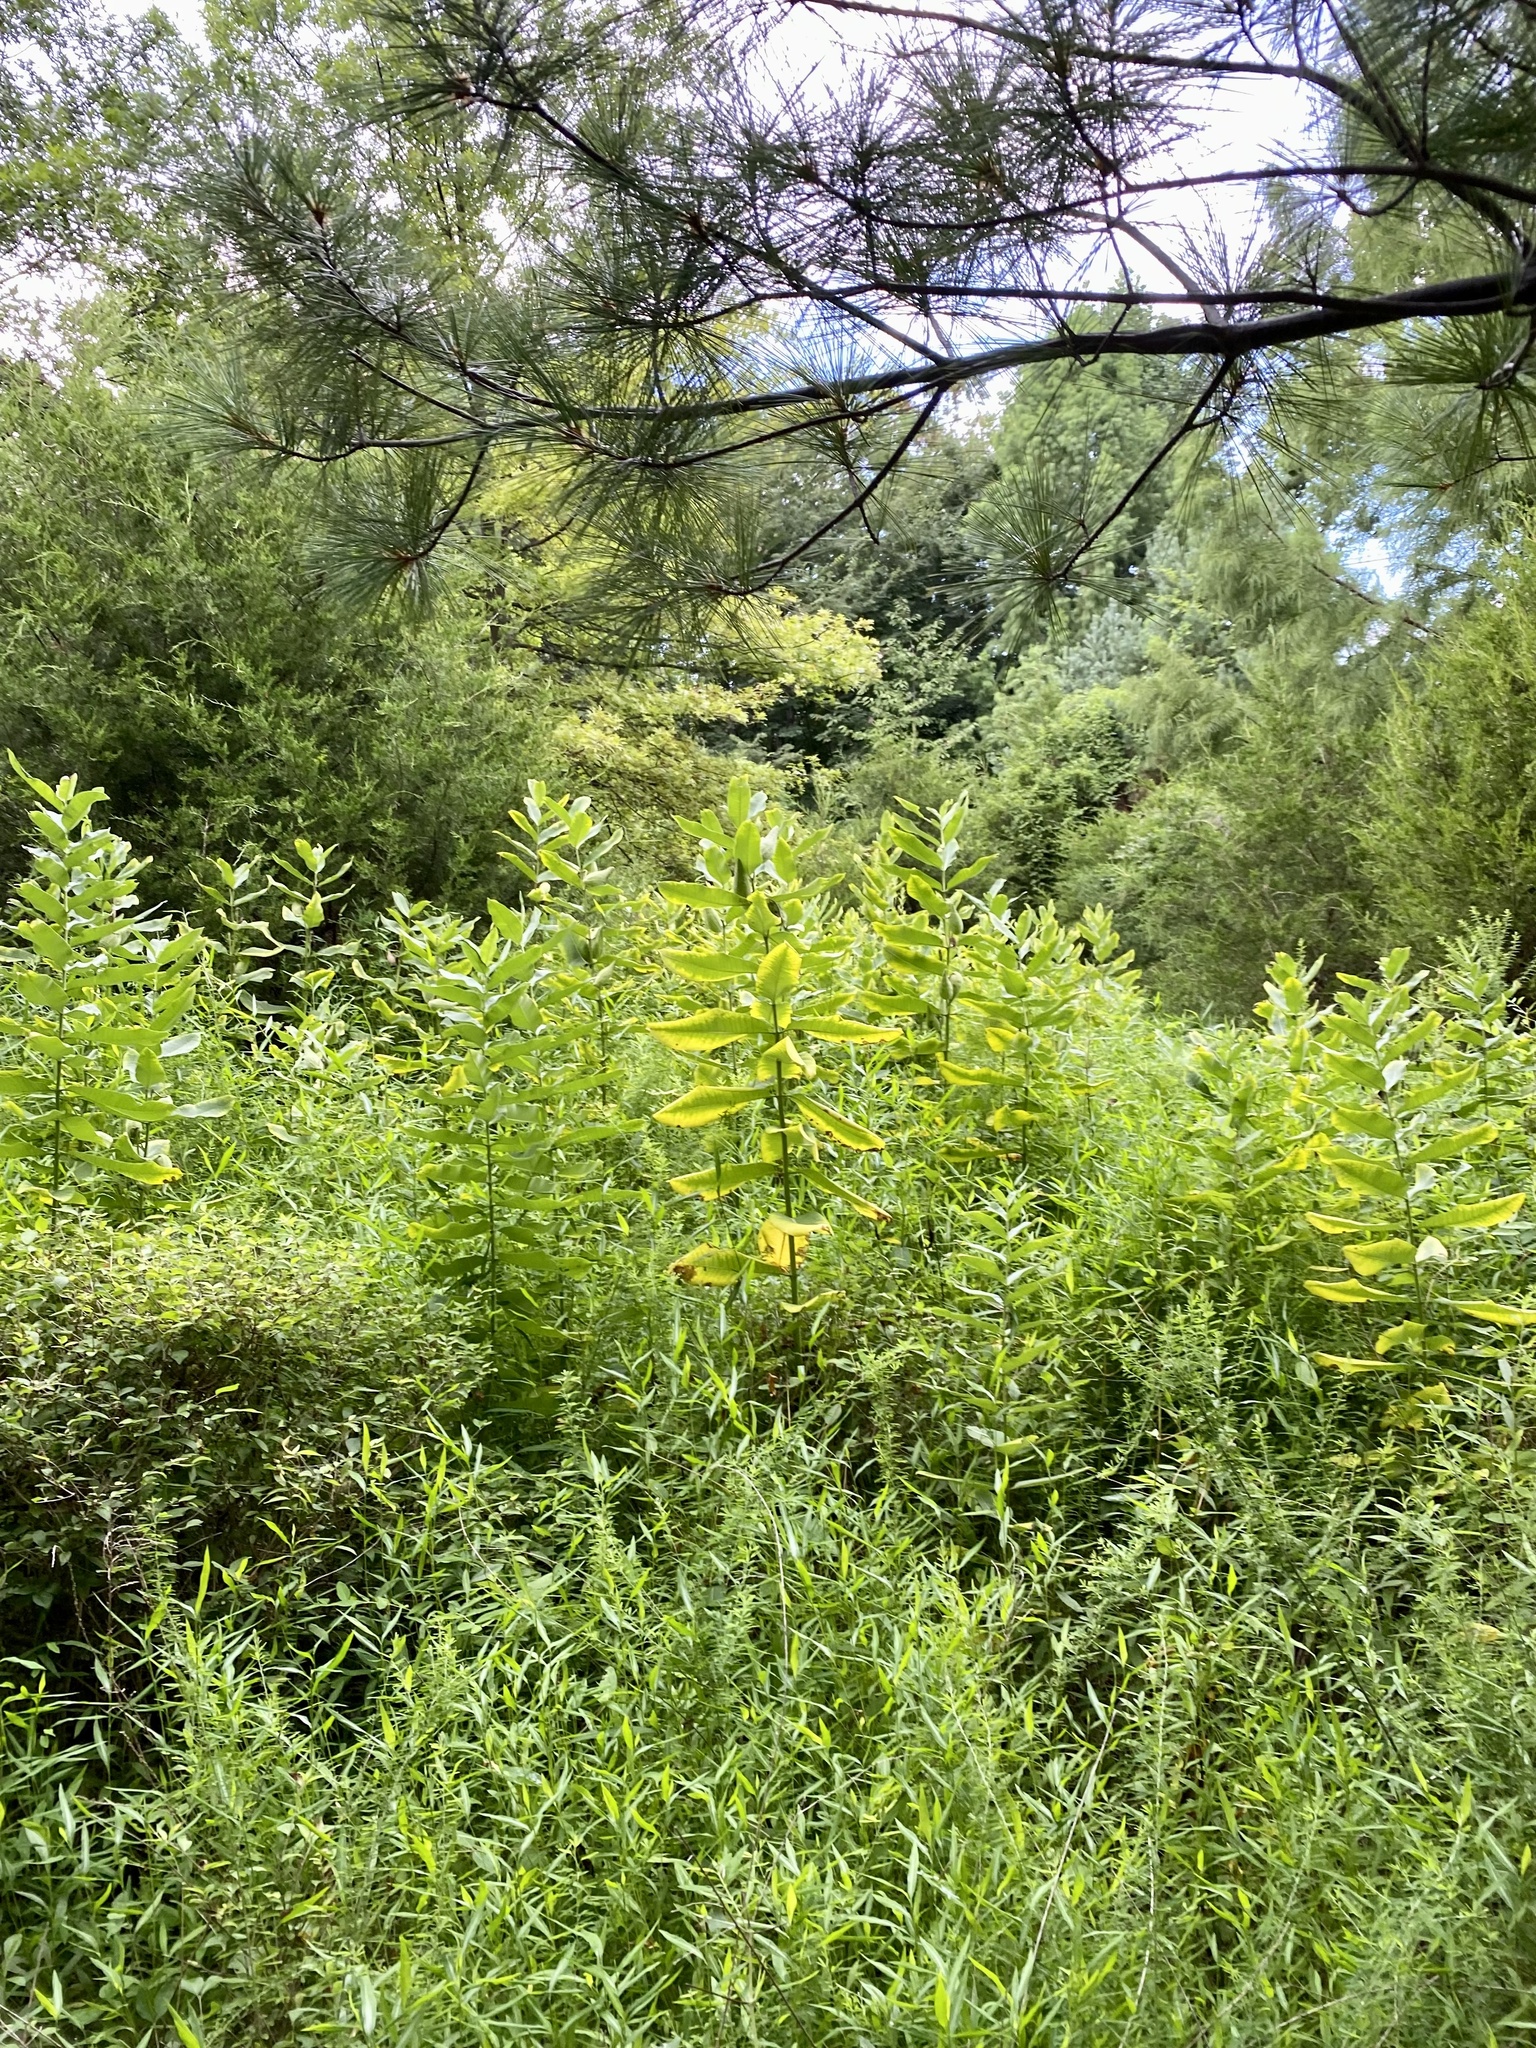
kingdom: Plantae
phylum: Tracheophyta
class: Magnoliopsida
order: Gentianales
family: Apocynaceae
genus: Asclepias
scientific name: Asclepias syriaca
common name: Common milkweed
